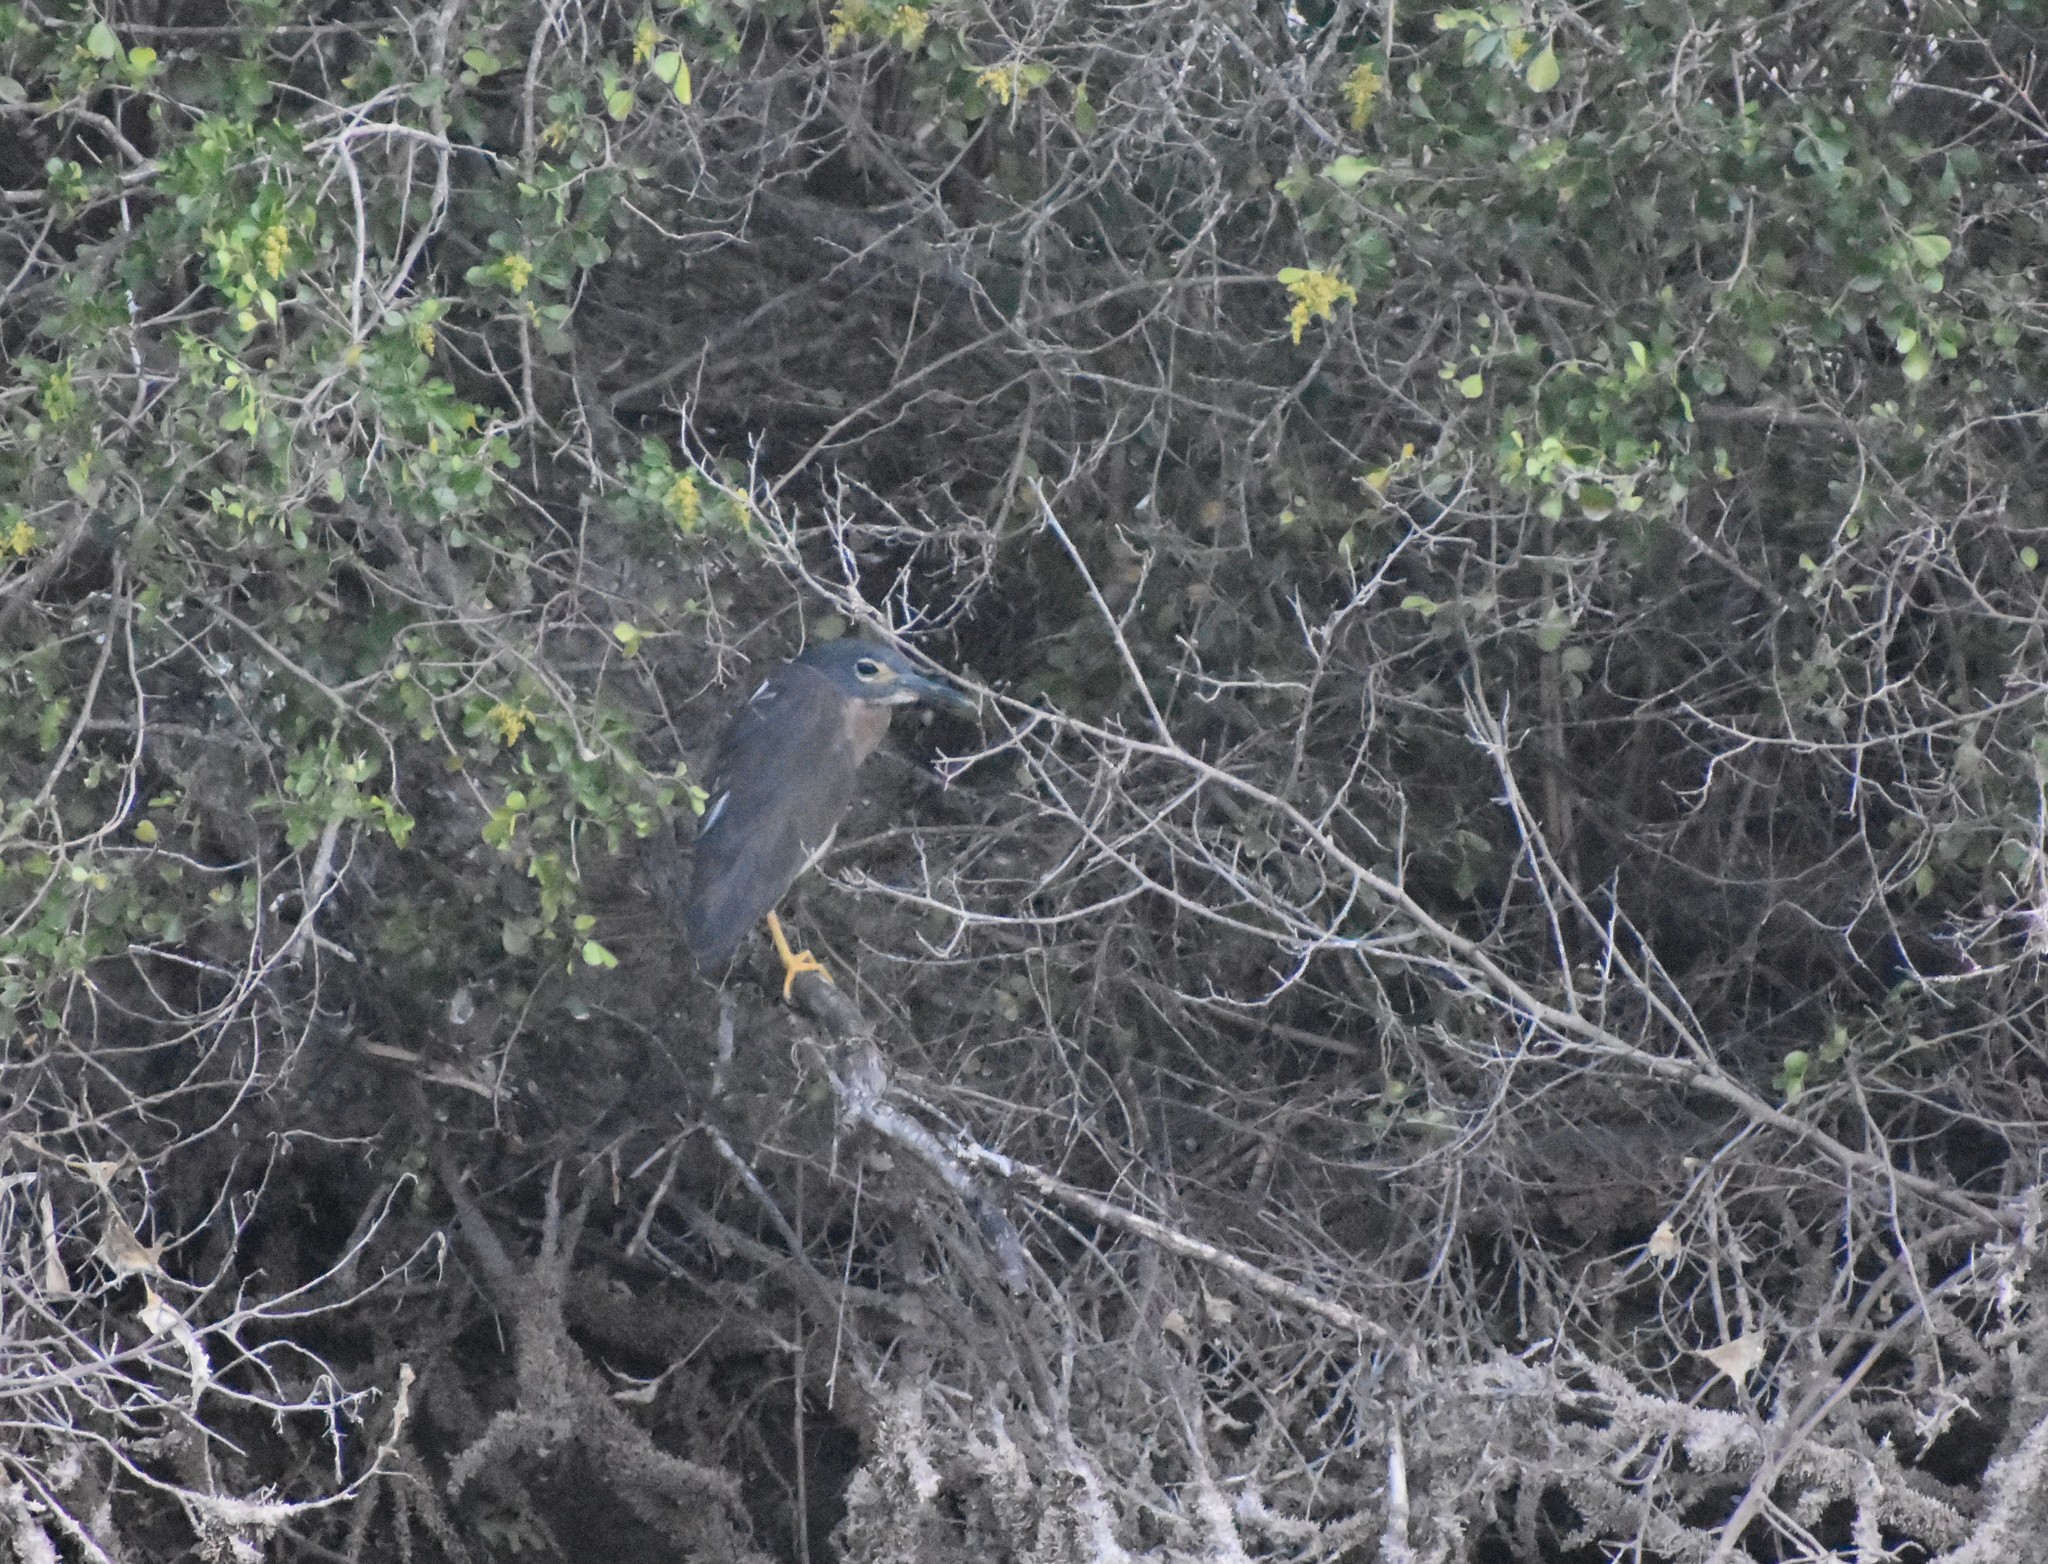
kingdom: Animalia
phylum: Chordata
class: Aves
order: Pelecaniformes
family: Ardeidae
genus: Gorsachius
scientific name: Gorsachius leuconotus
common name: White-backed night heron
